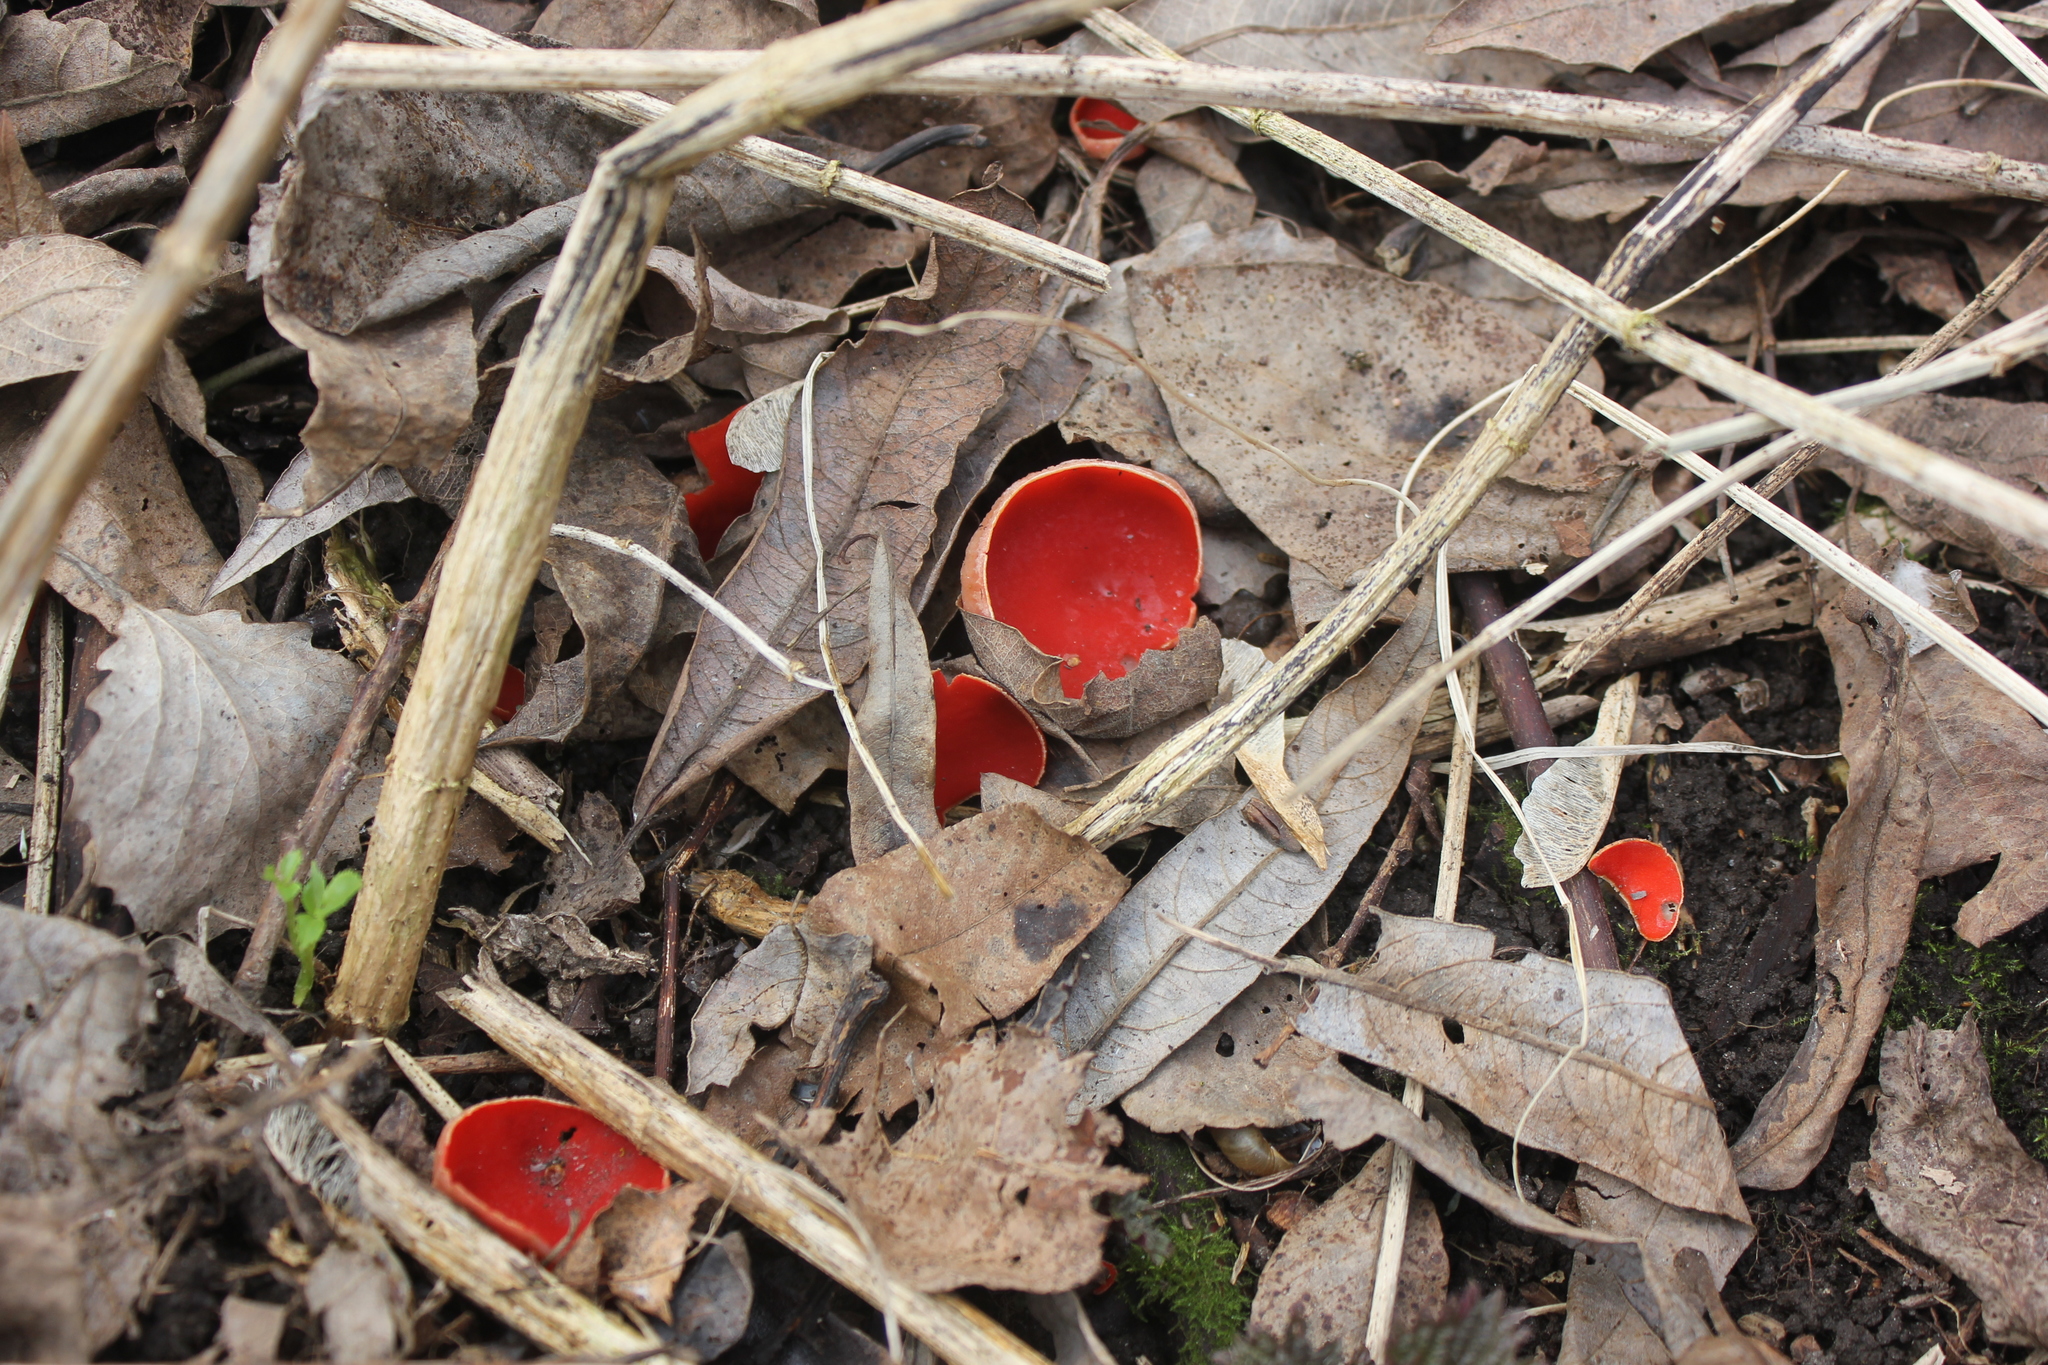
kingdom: Fungi
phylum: Ascomycota
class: Pezizomycetes
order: Pezizales
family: Sarcoscyphaceae
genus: Sarcoscypha
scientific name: Sarcoscypha austriaca
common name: Scarlet elfcup
